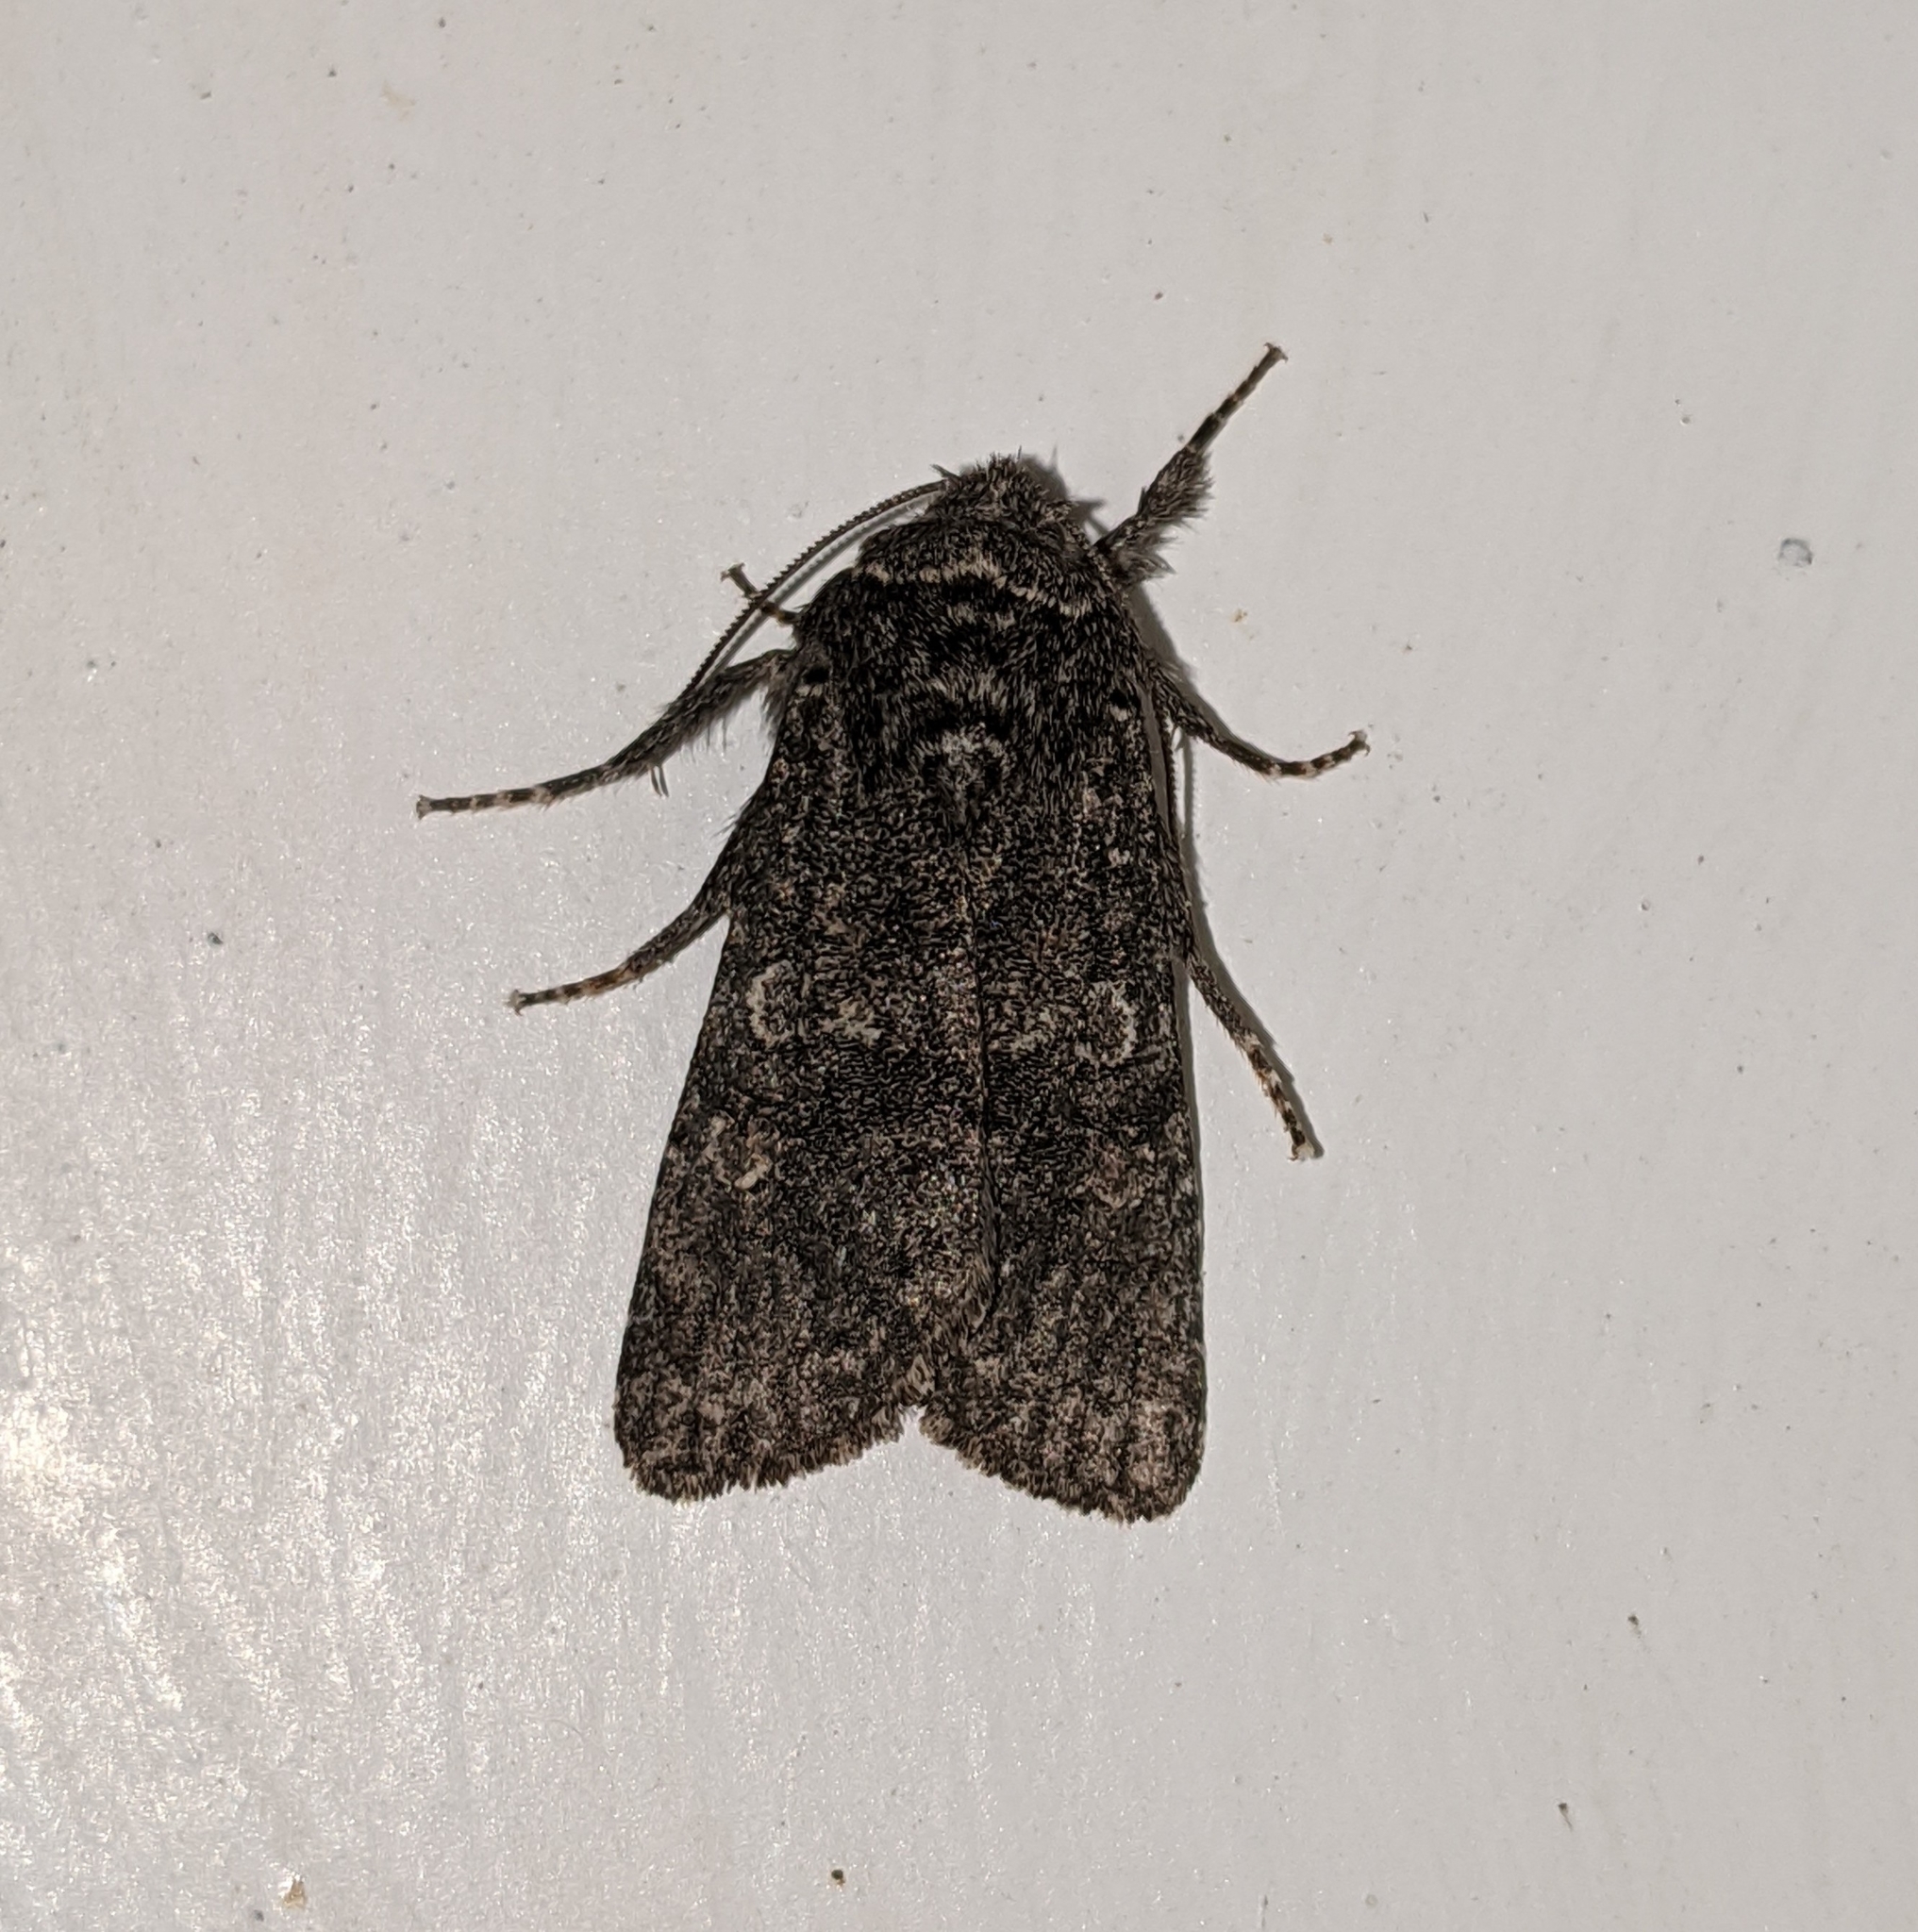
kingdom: Animalia
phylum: Arthropoda
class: Insecta
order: Lepidoptera
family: Noctuidae
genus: Egira
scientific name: Egira dolosa
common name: Lined black aspen cat.
